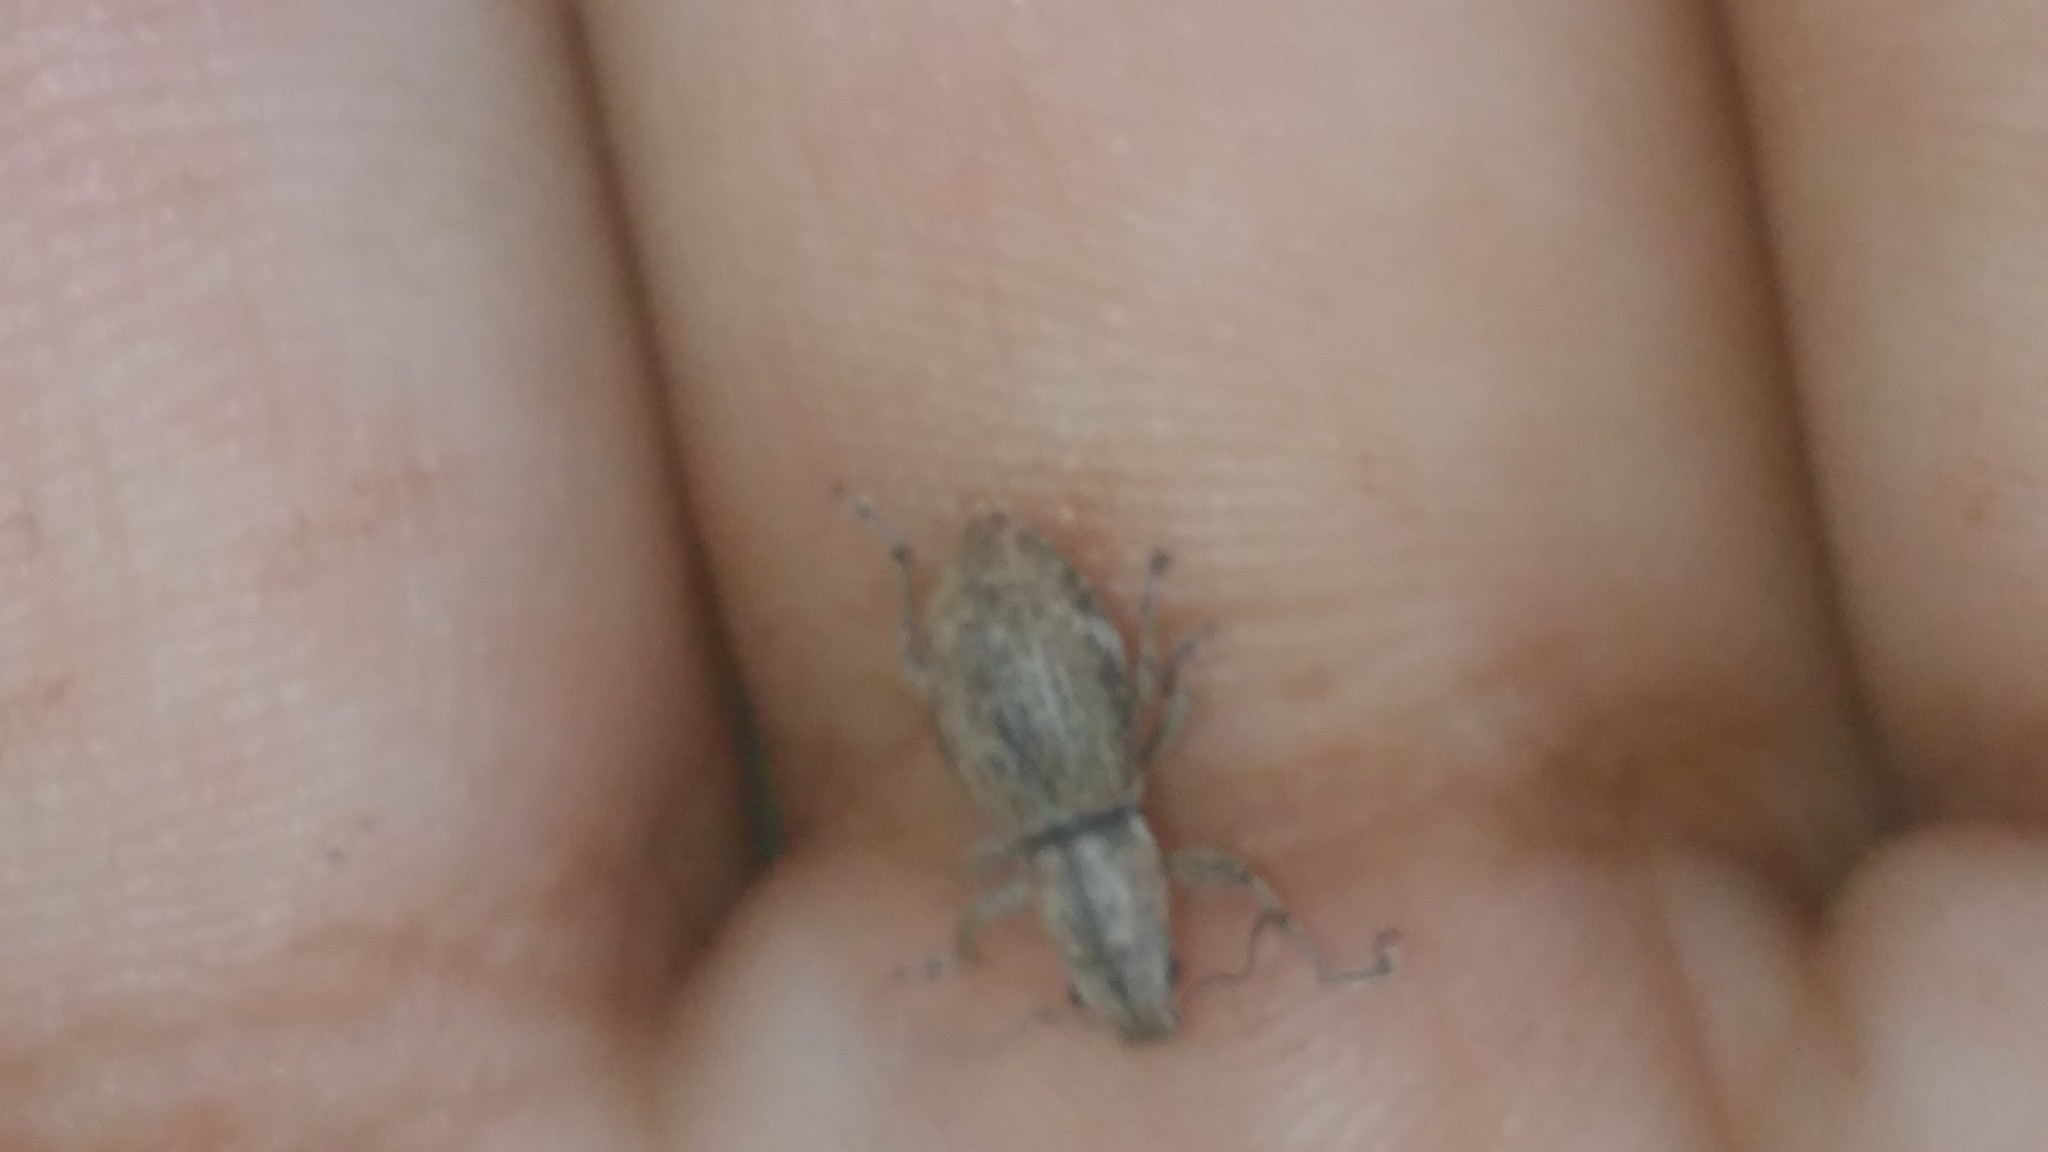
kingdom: Animalia
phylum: Arthropoda
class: Insecta
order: Coleoptera
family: Curculionidae
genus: Naupactus
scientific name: Naupactus cervinus
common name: Fuller rose beetle
